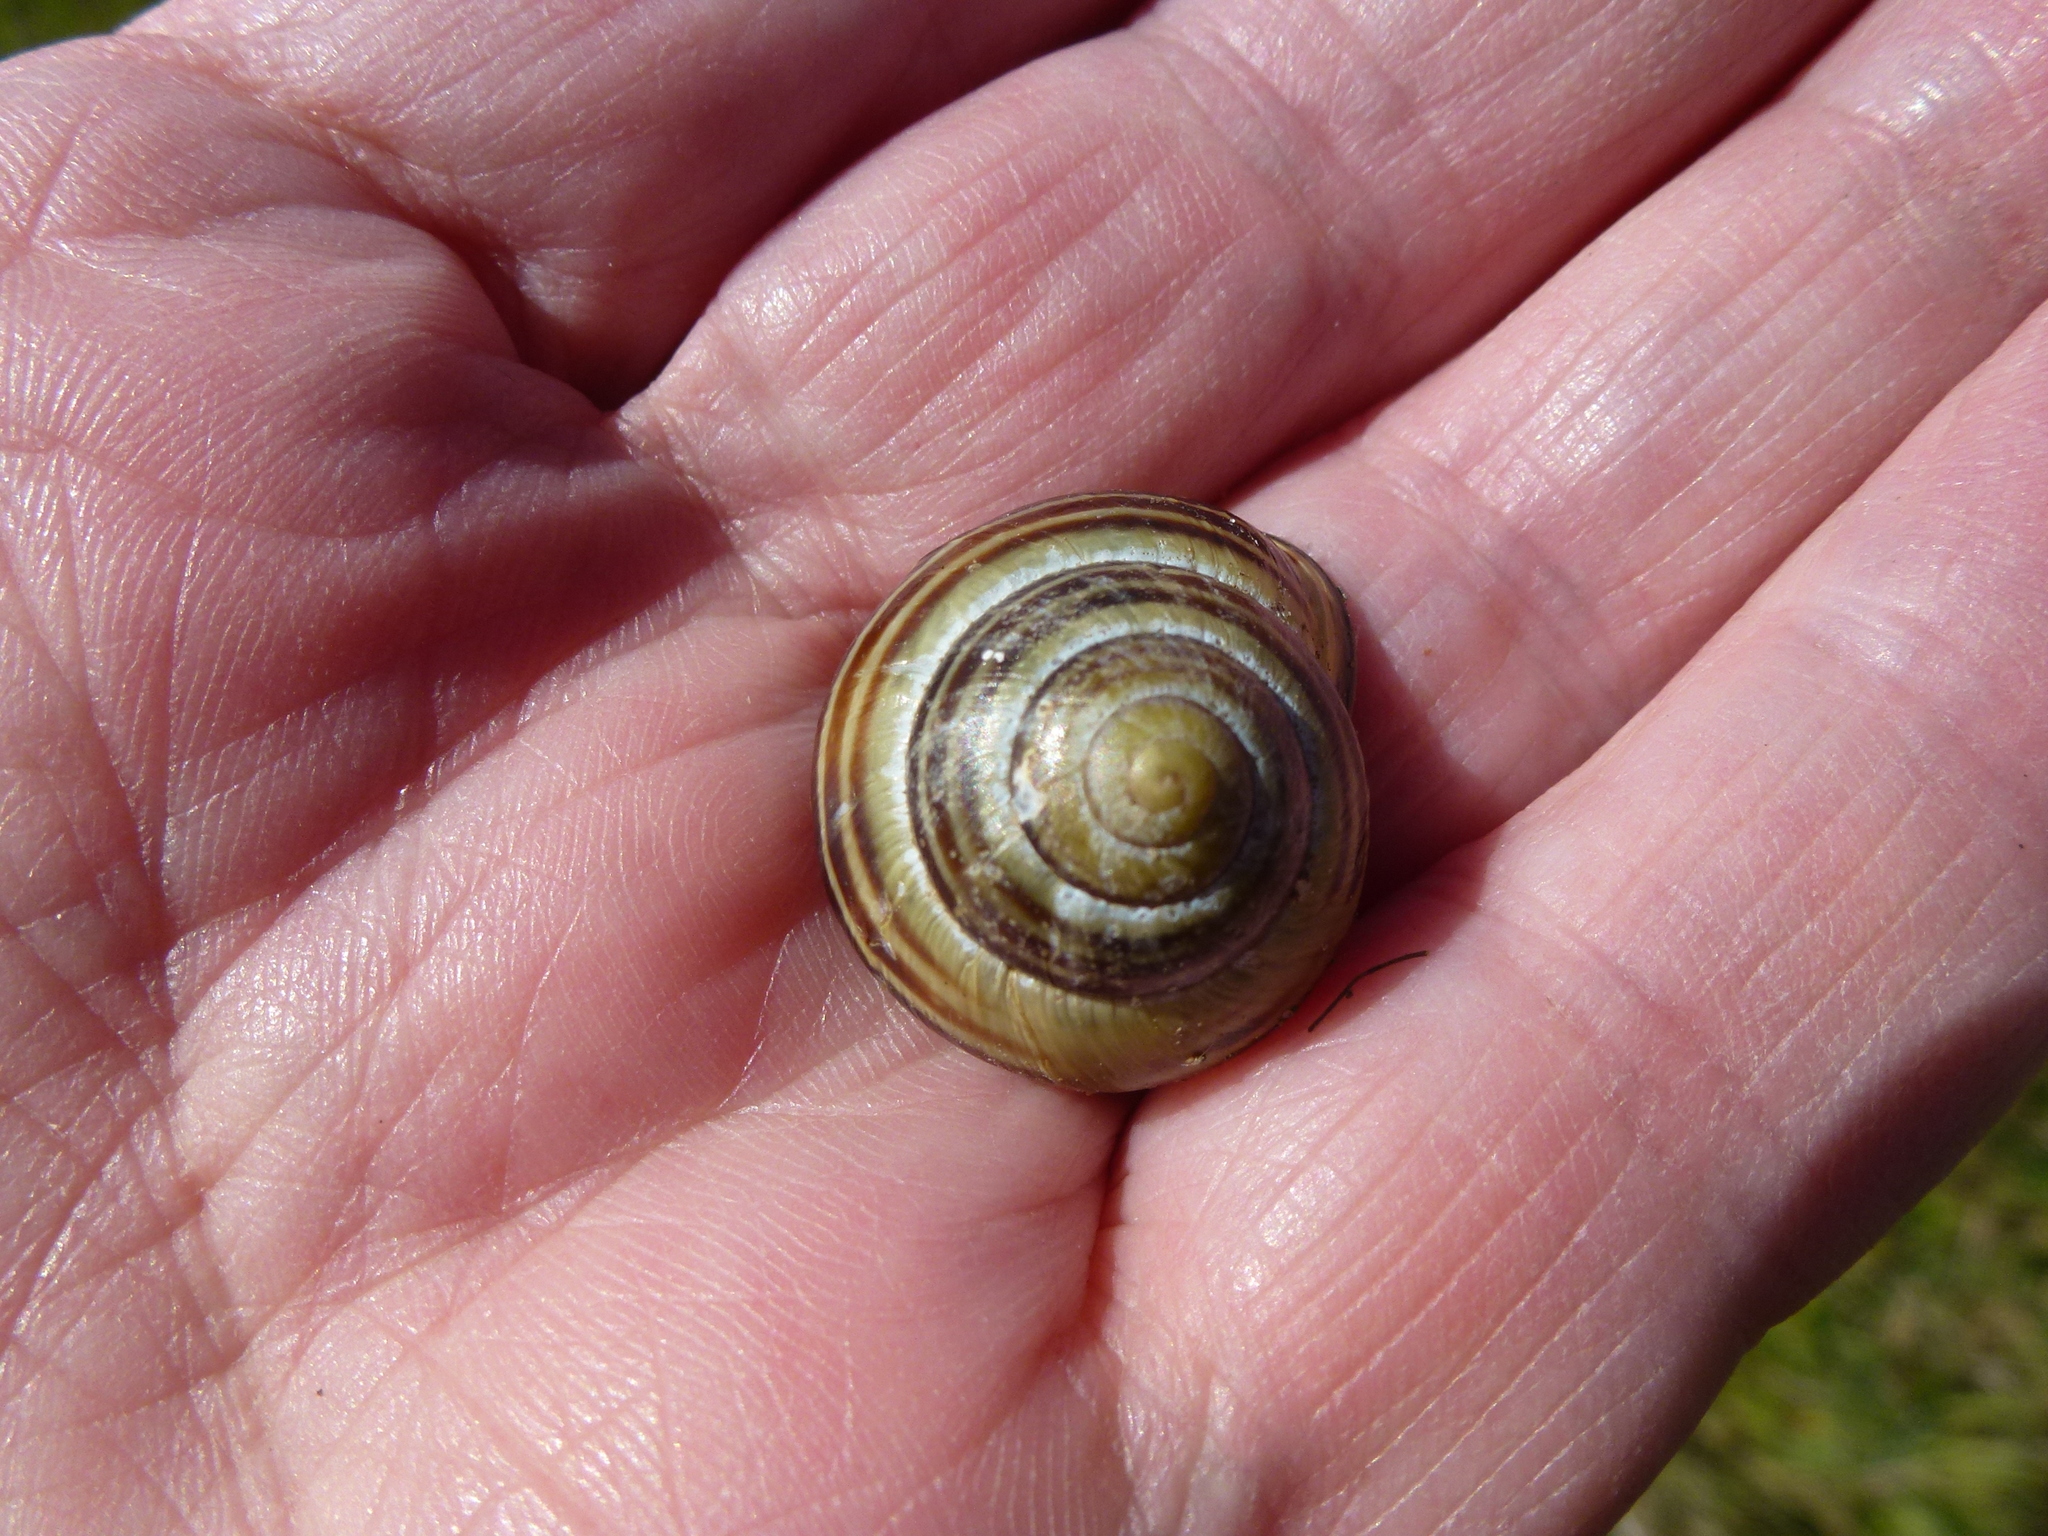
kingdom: Animalia
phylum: Mollusca
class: Gastropoda
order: Stylommatophora
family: Helicidae
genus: Cepaea
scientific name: Cepaea nemoralis
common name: Grovesnail
